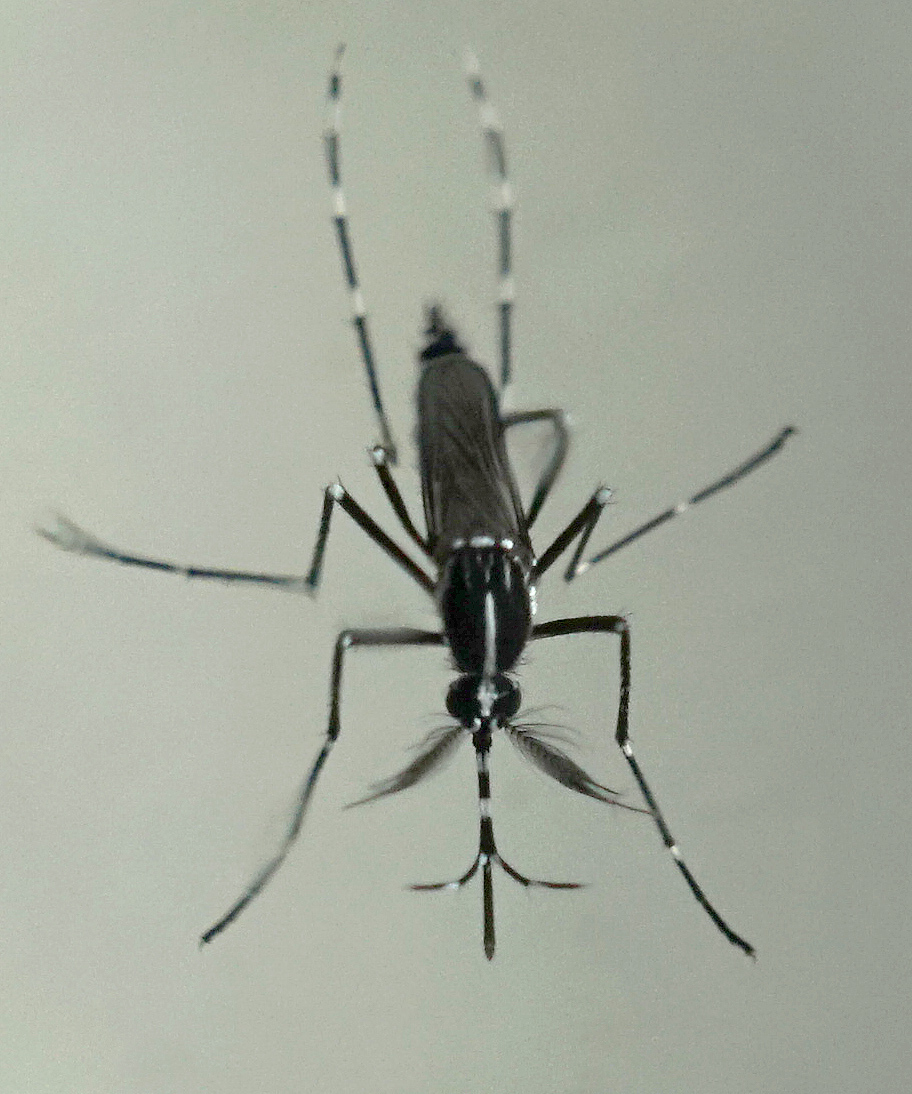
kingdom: Animalia
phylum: Arthropoda
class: Insecta
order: Diptera
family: Culicidae
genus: Aedes
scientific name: Aedes albopictus
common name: Tiger mosquito
